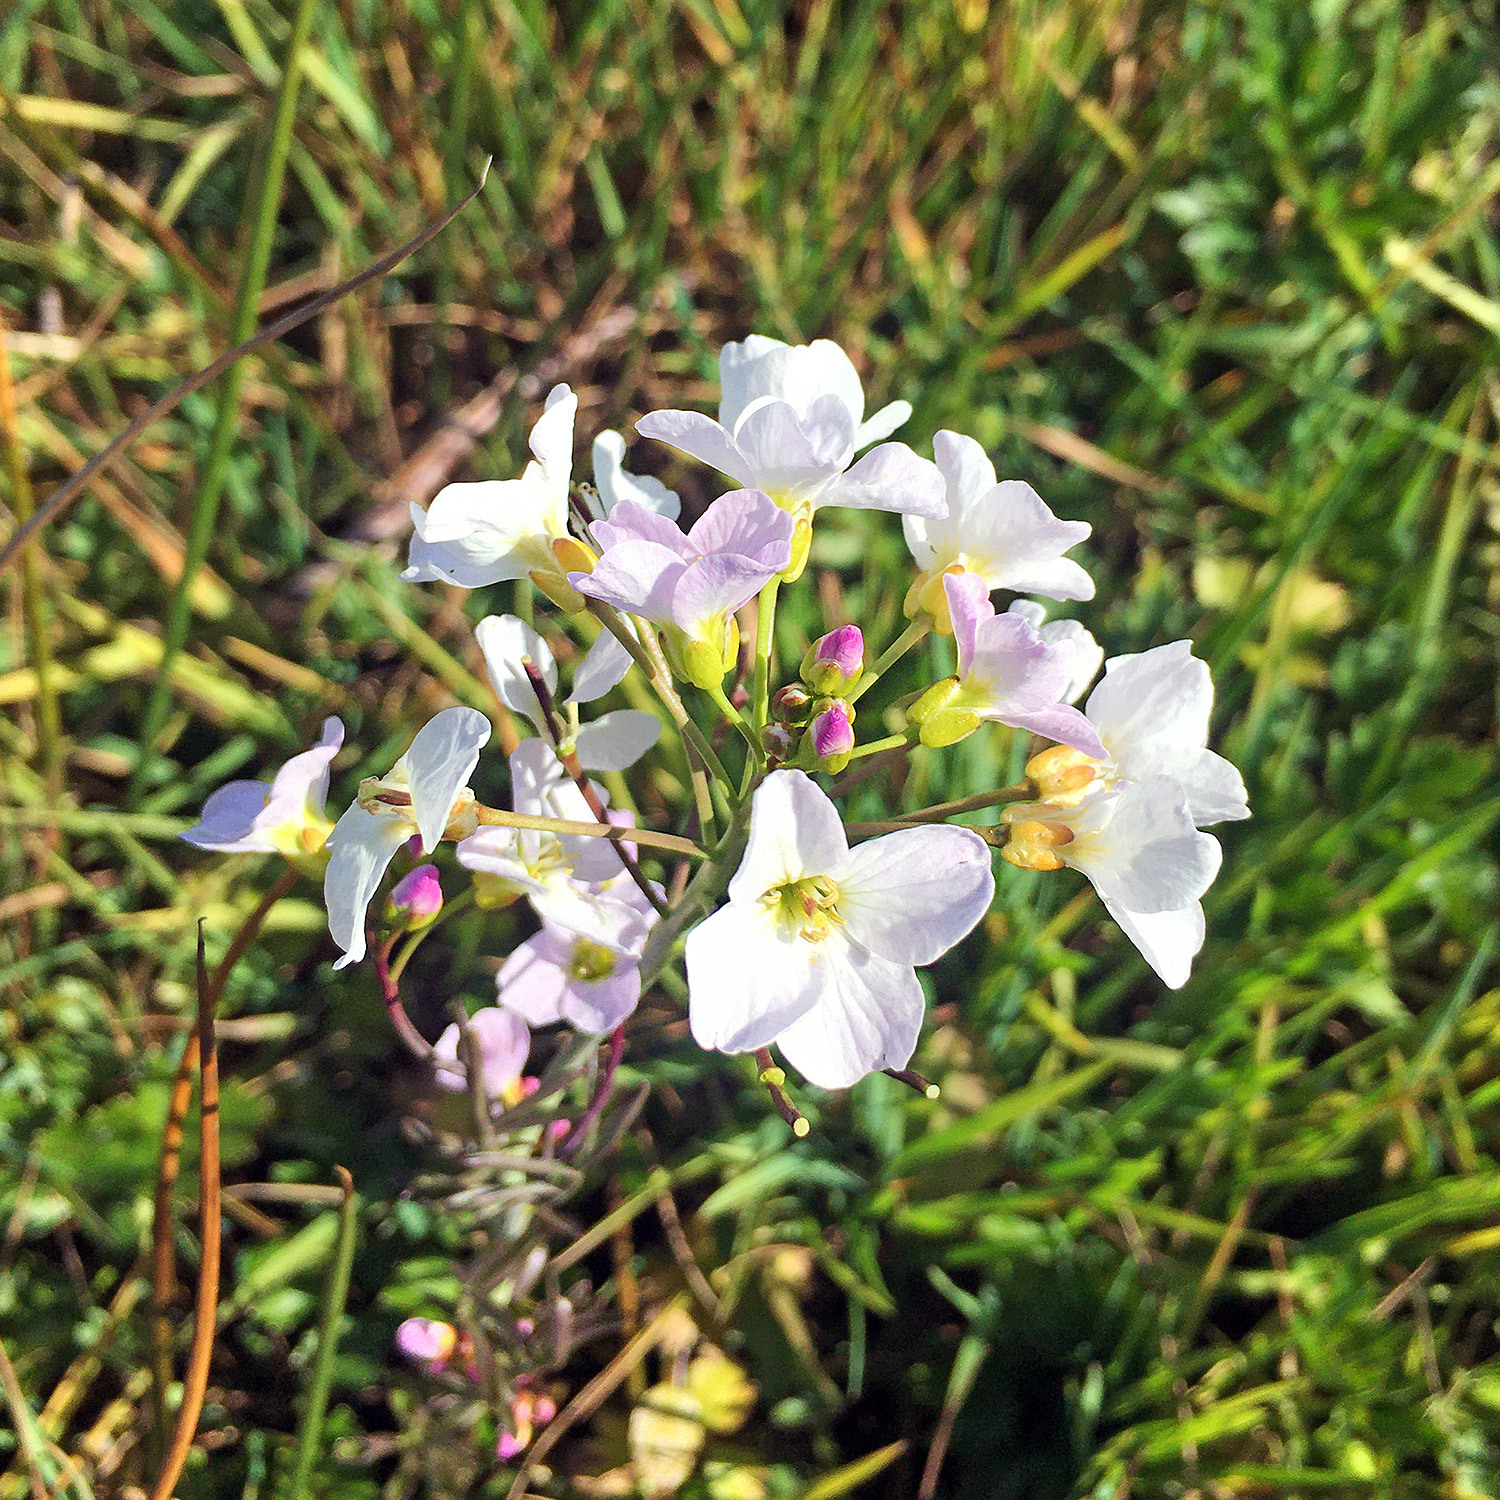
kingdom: Plantae
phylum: Tracheophyta
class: Magnoliopsida
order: Brassicales
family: Brassicaceae
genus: Cardamine
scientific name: Cardamine pratensis
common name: Cuckoo flower
